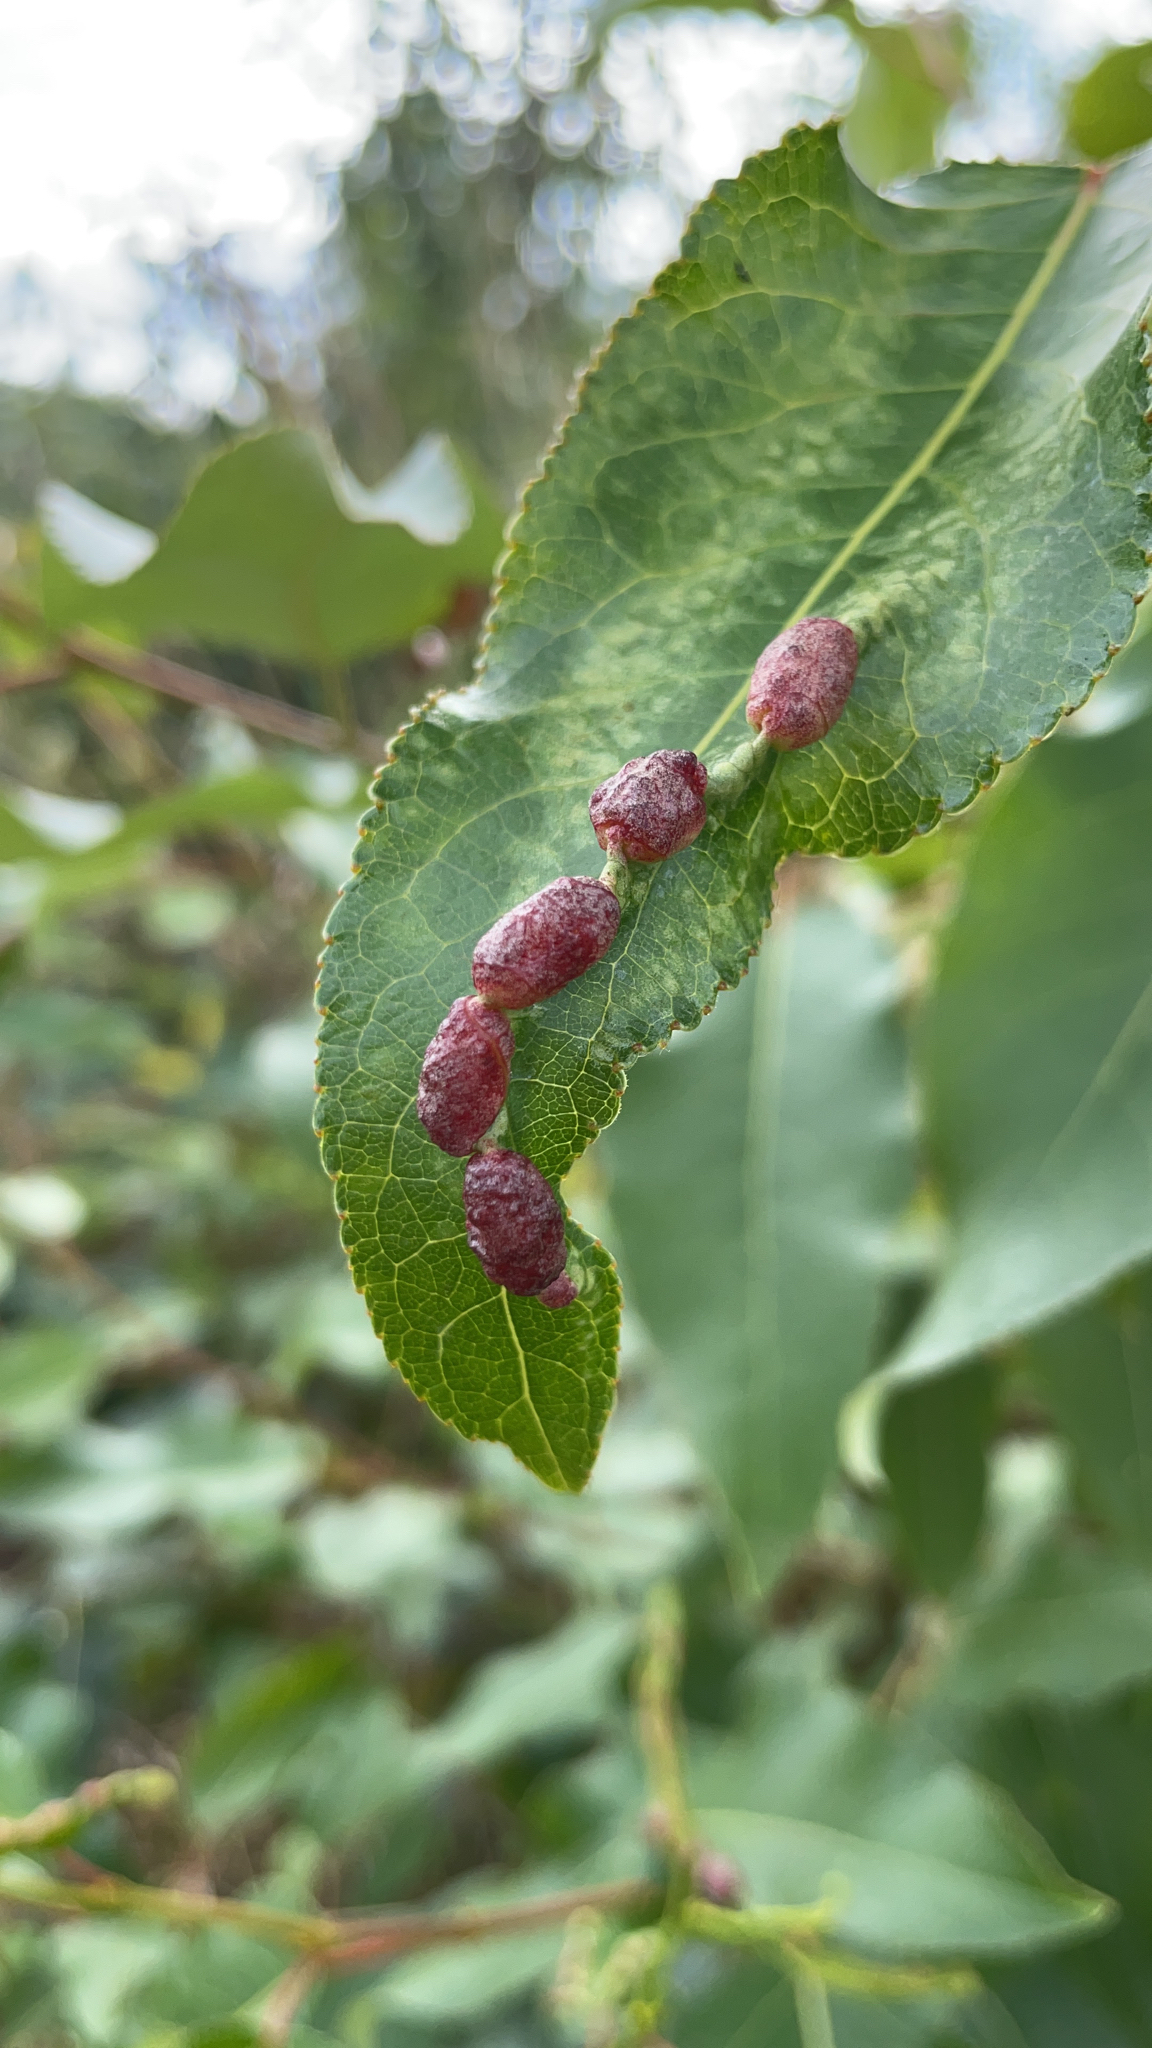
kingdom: Animalia
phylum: Arthropoda
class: Insecta
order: Hemiptera
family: Aphididae
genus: Thecabius
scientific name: Thecabius populimonilis
